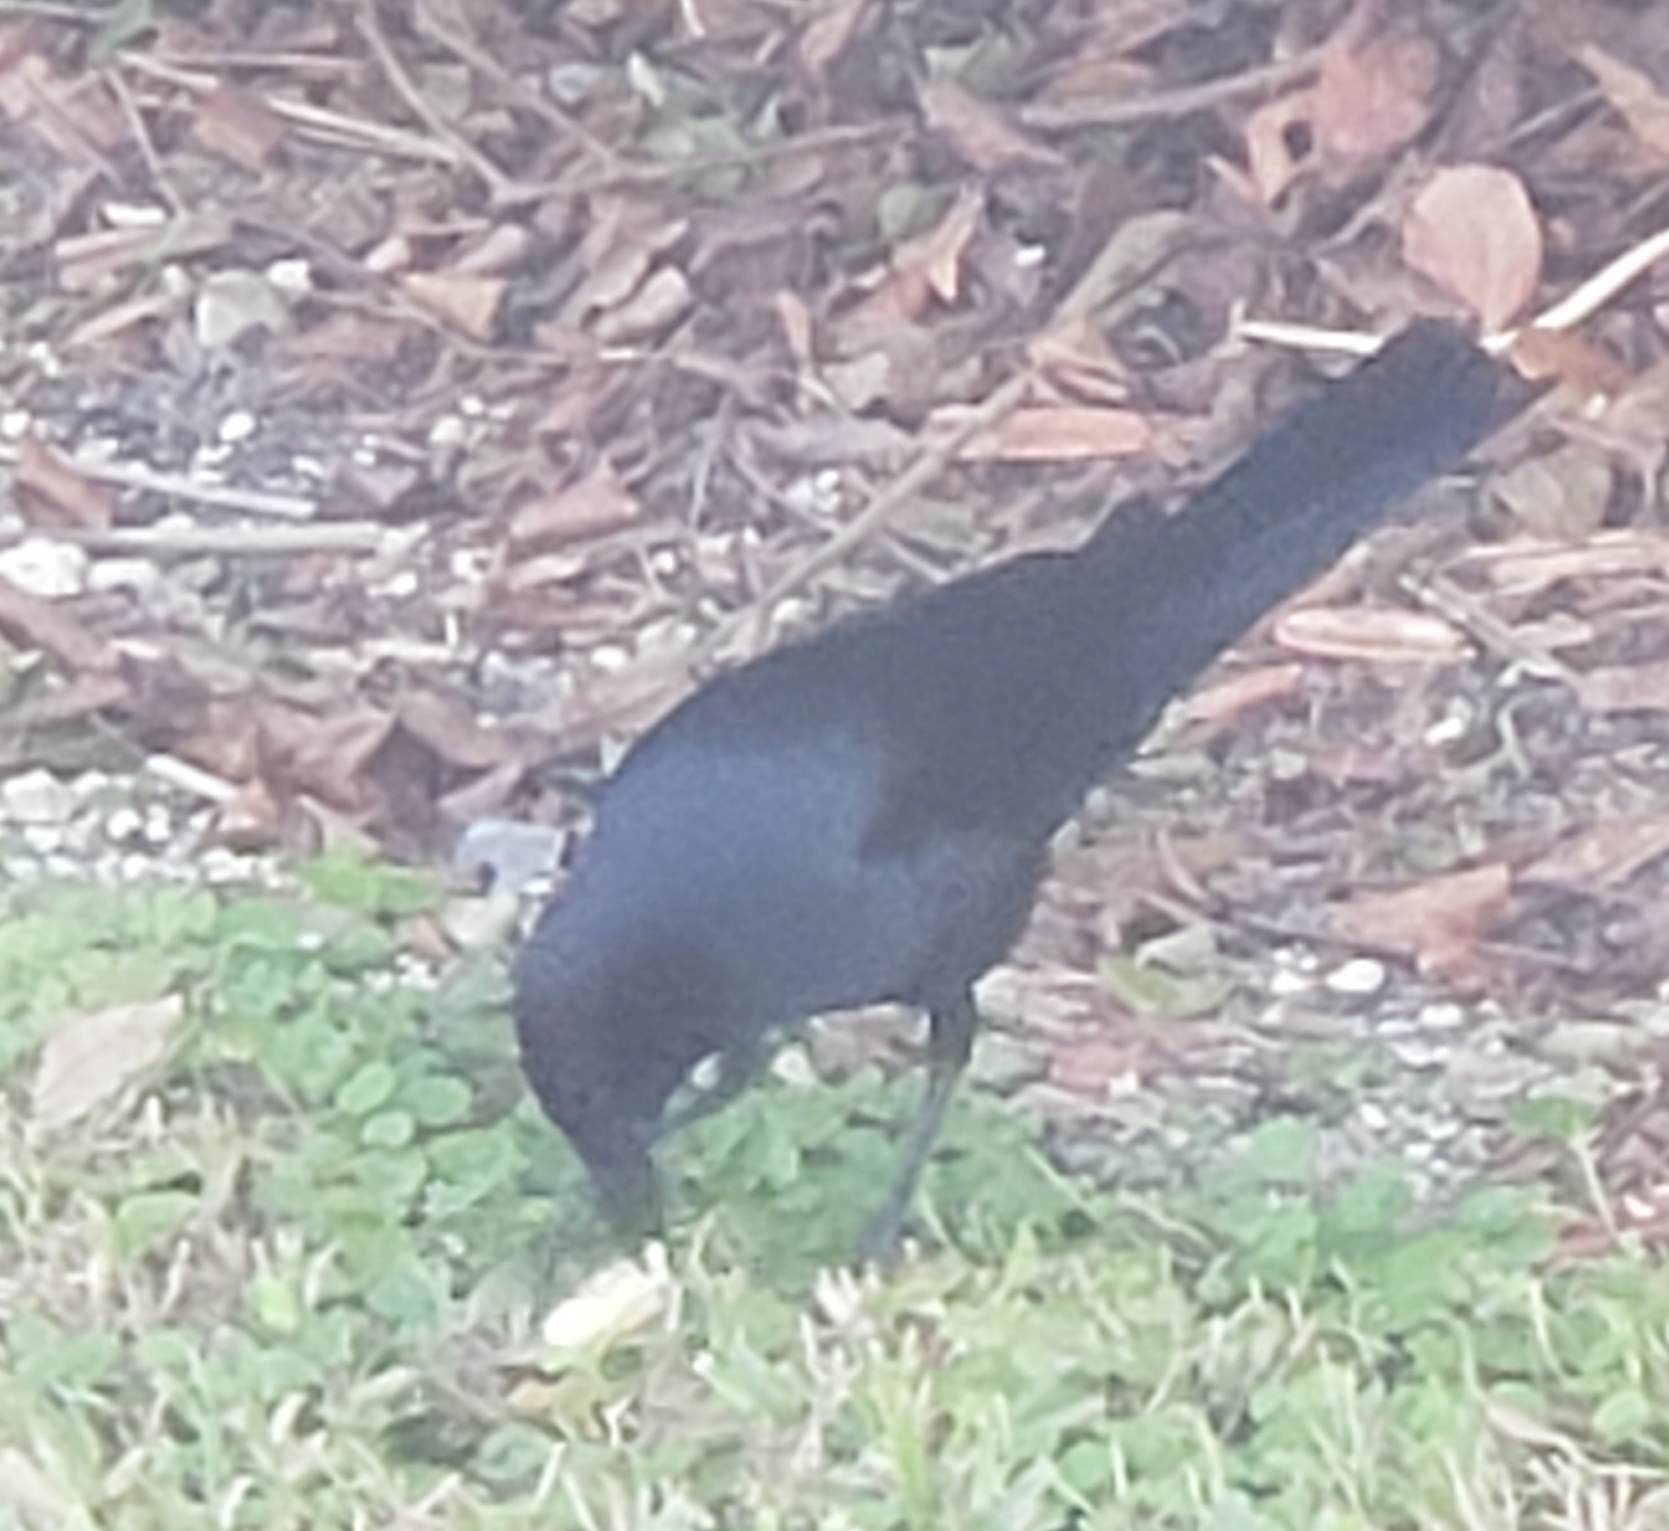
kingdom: Animalia
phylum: Chordata
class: Aves
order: Passeriformes
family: Icteridae
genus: Quiscalus
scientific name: Quiscalus major
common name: Boat-tailed grackle
